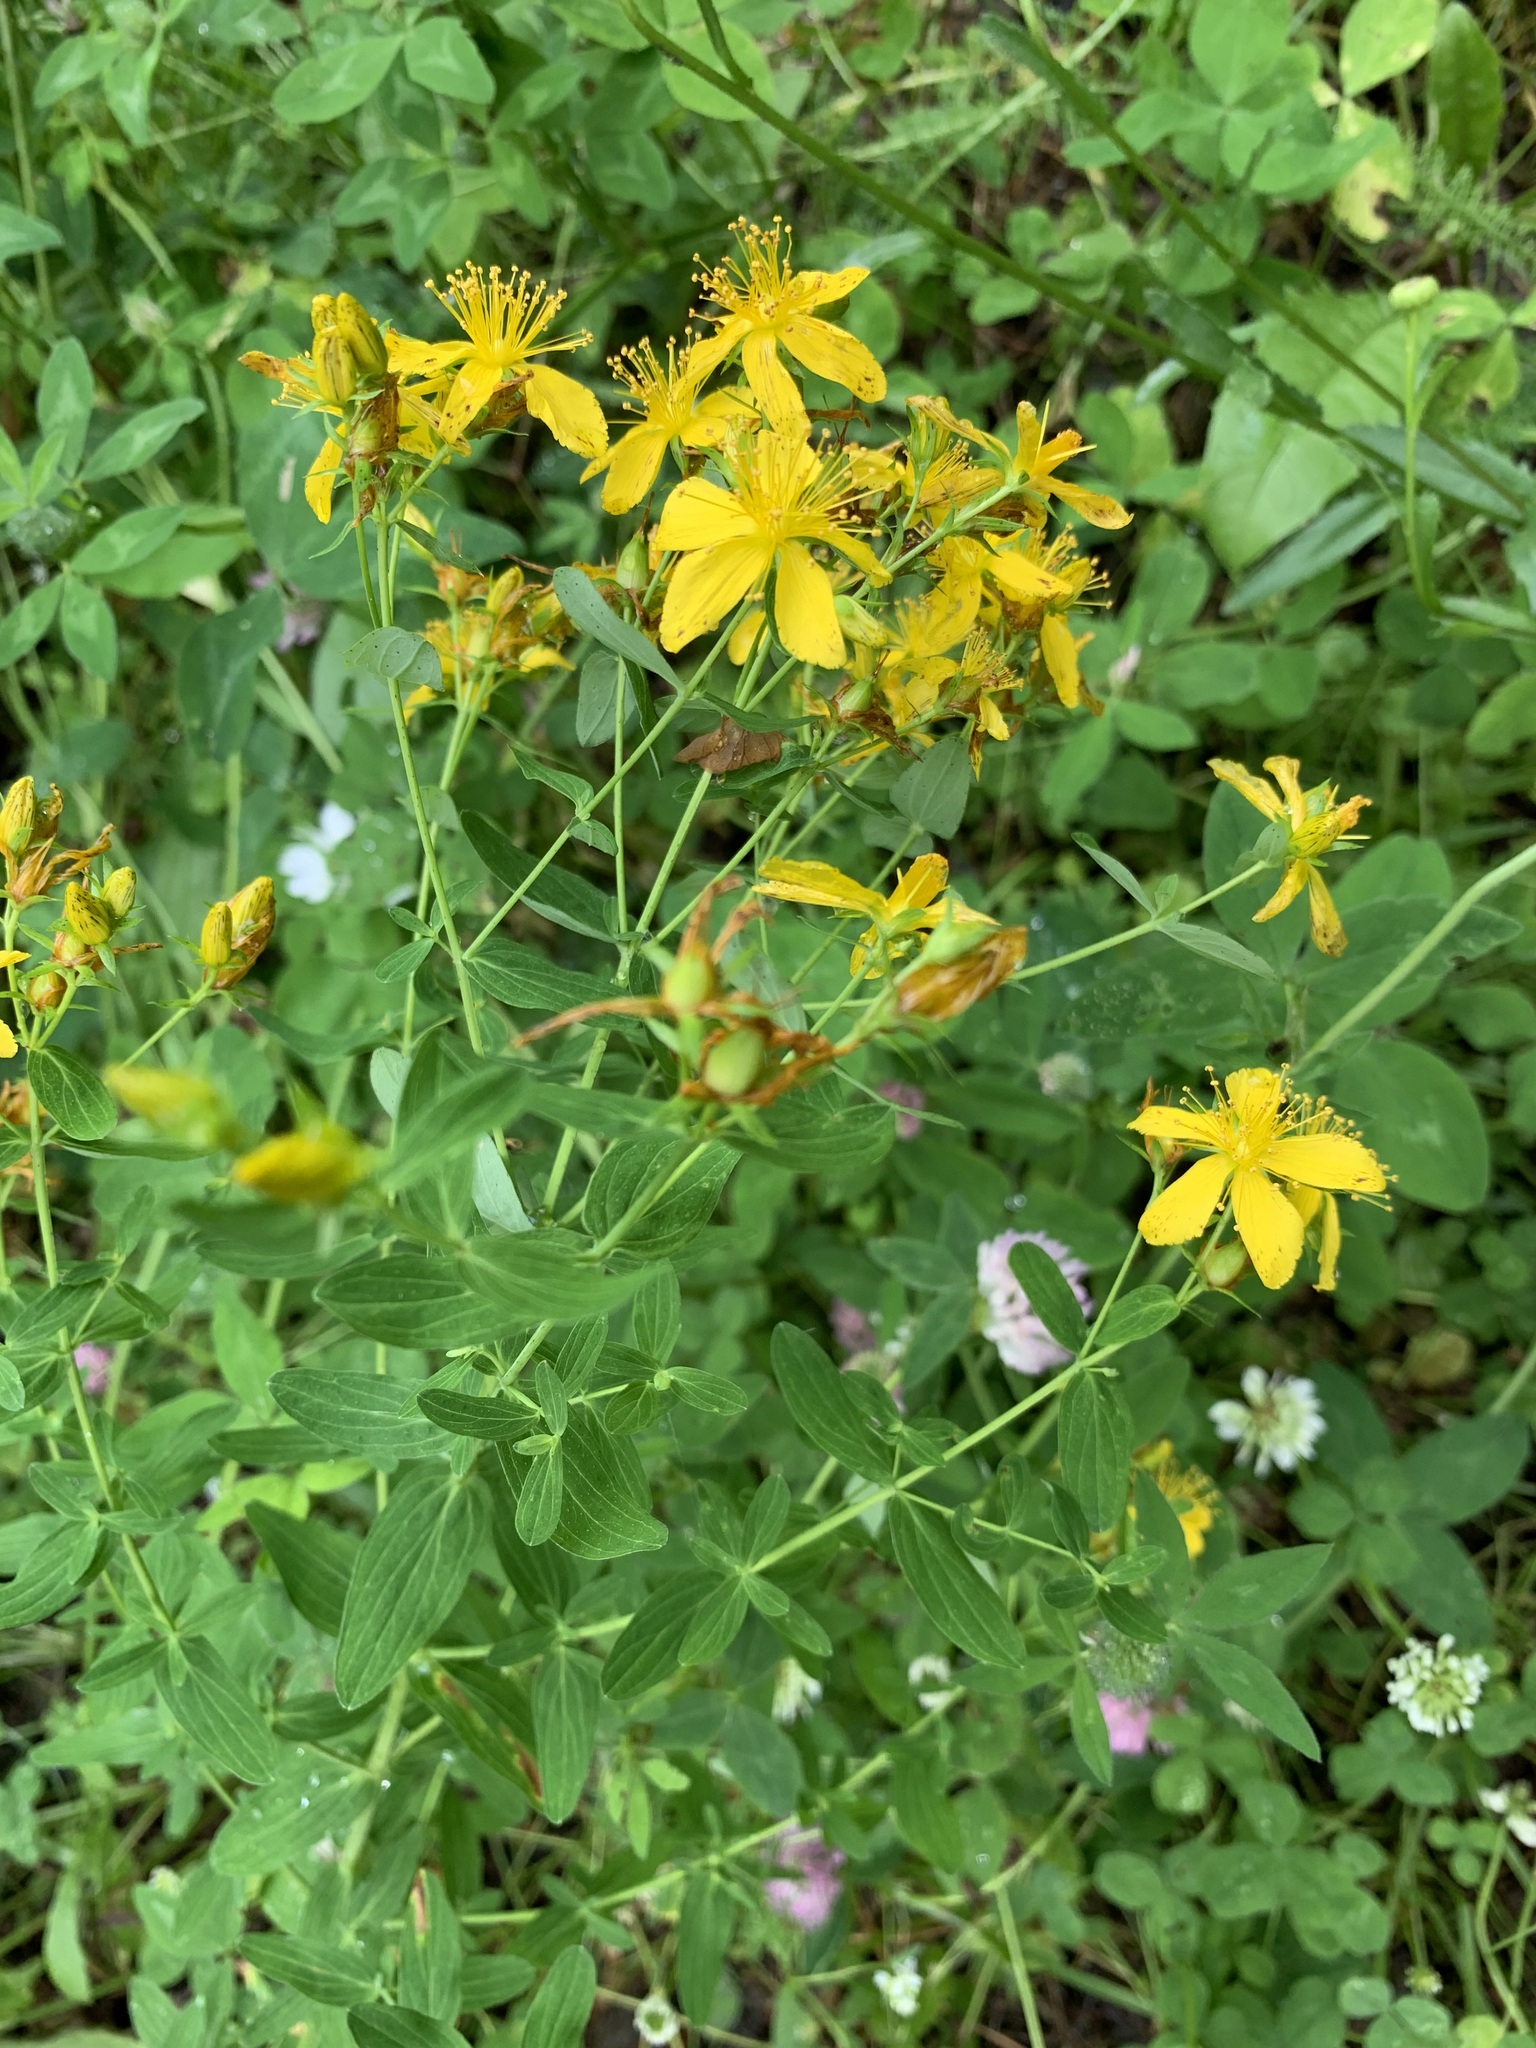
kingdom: Plantae
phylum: Tracheophyta
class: Magnoliopsida
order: Malpighiales
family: Hypericaceae
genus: Hypericum
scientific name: Hypericum perforatum
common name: Common st. johnswort
